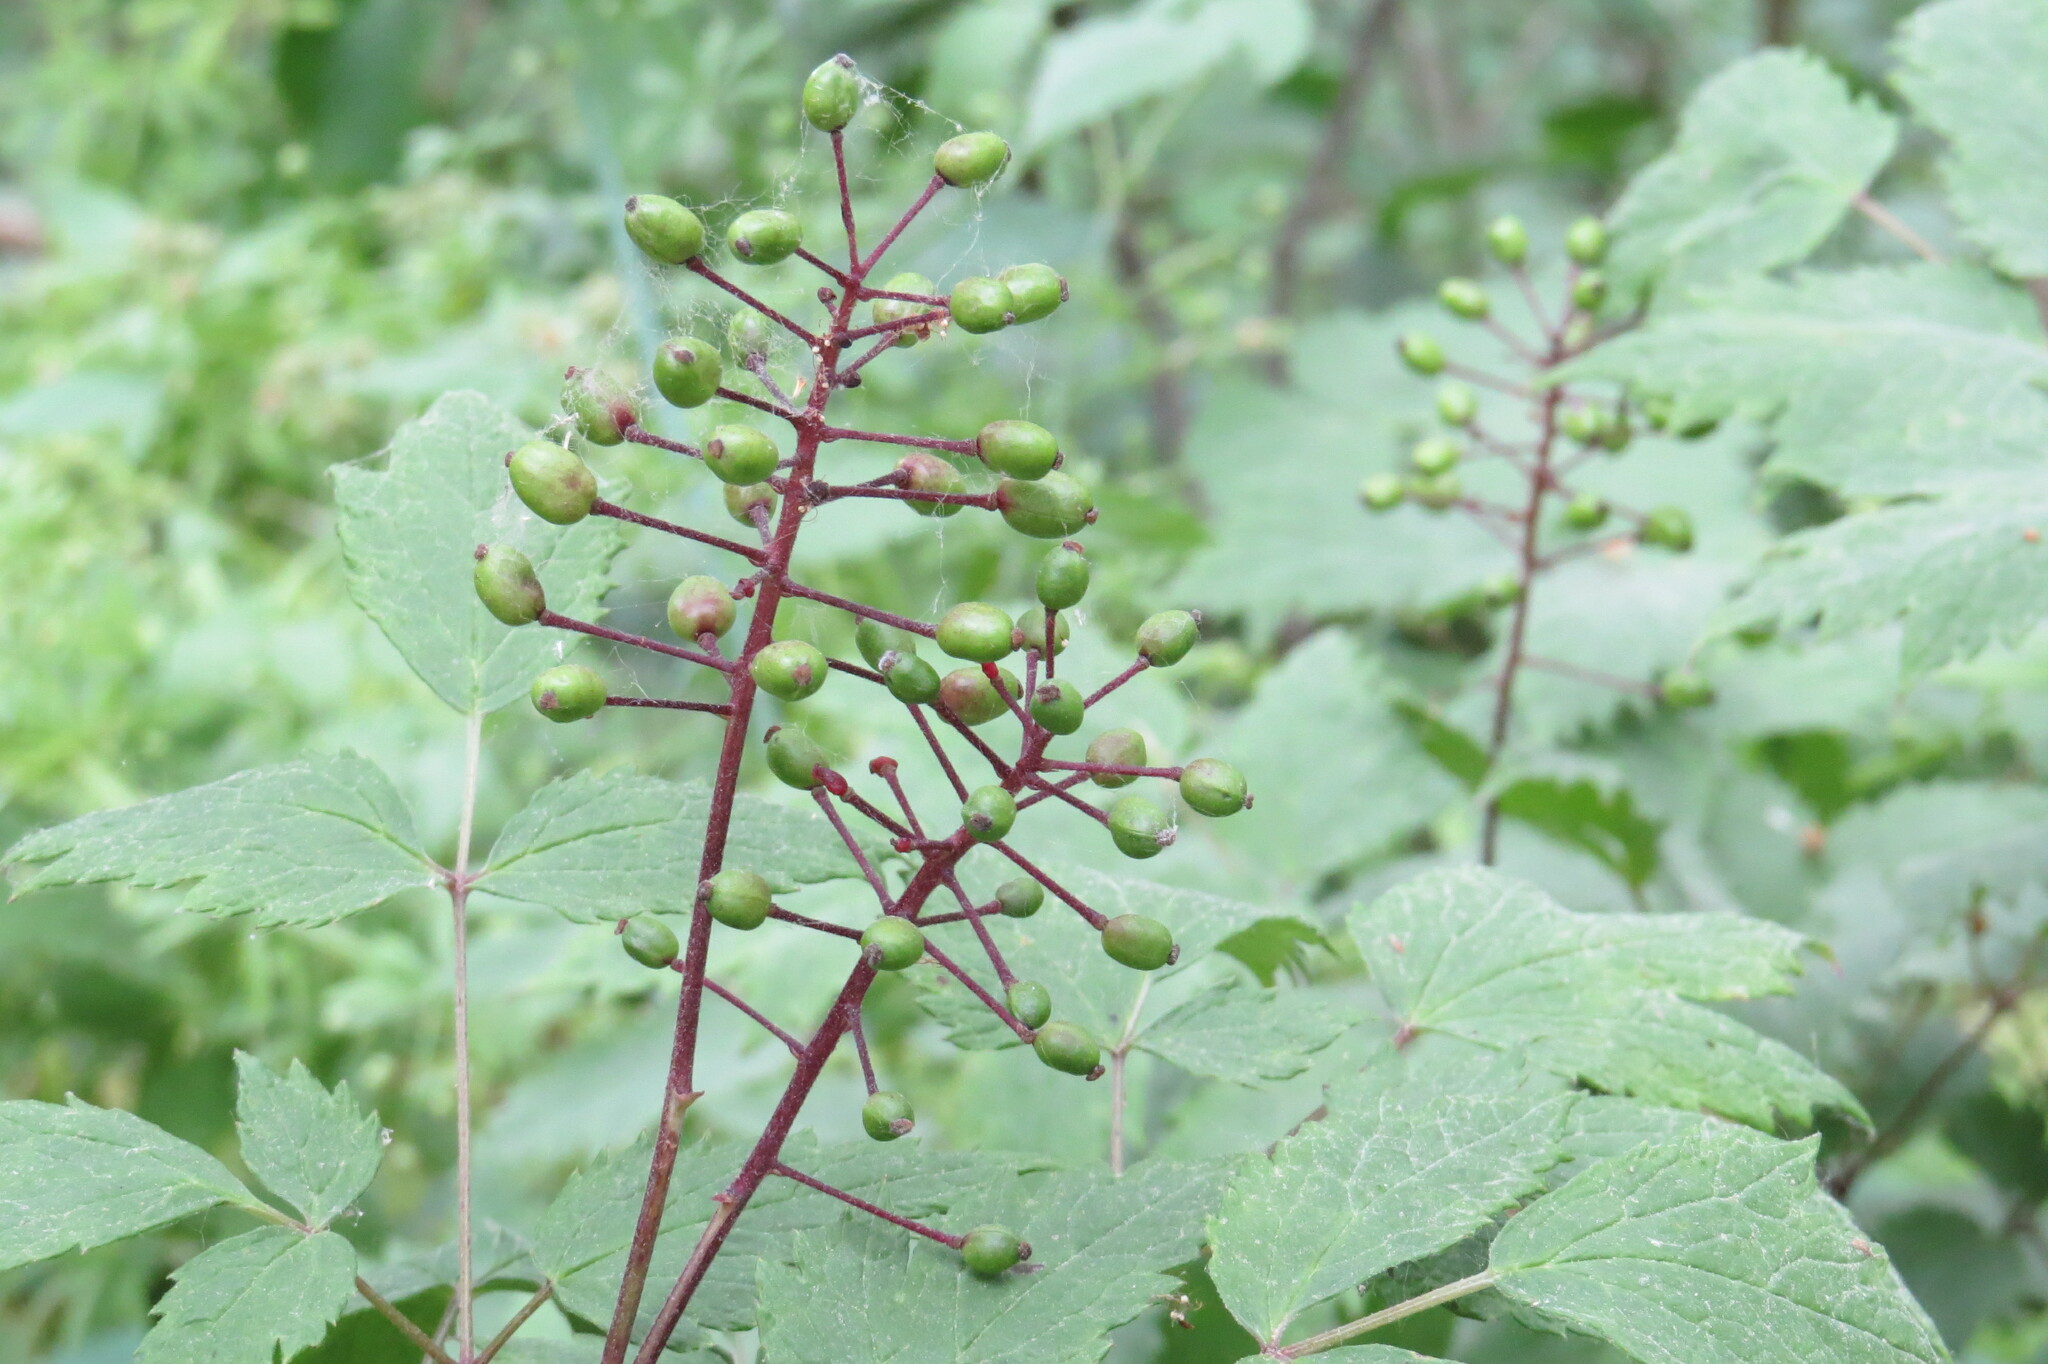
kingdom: Plantae
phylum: Tracheophyta
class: Magnoliopsida
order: Ranunculales
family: Ranunculaceae
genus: Actaea
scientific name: Actaea rubra
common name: Red baneberry
